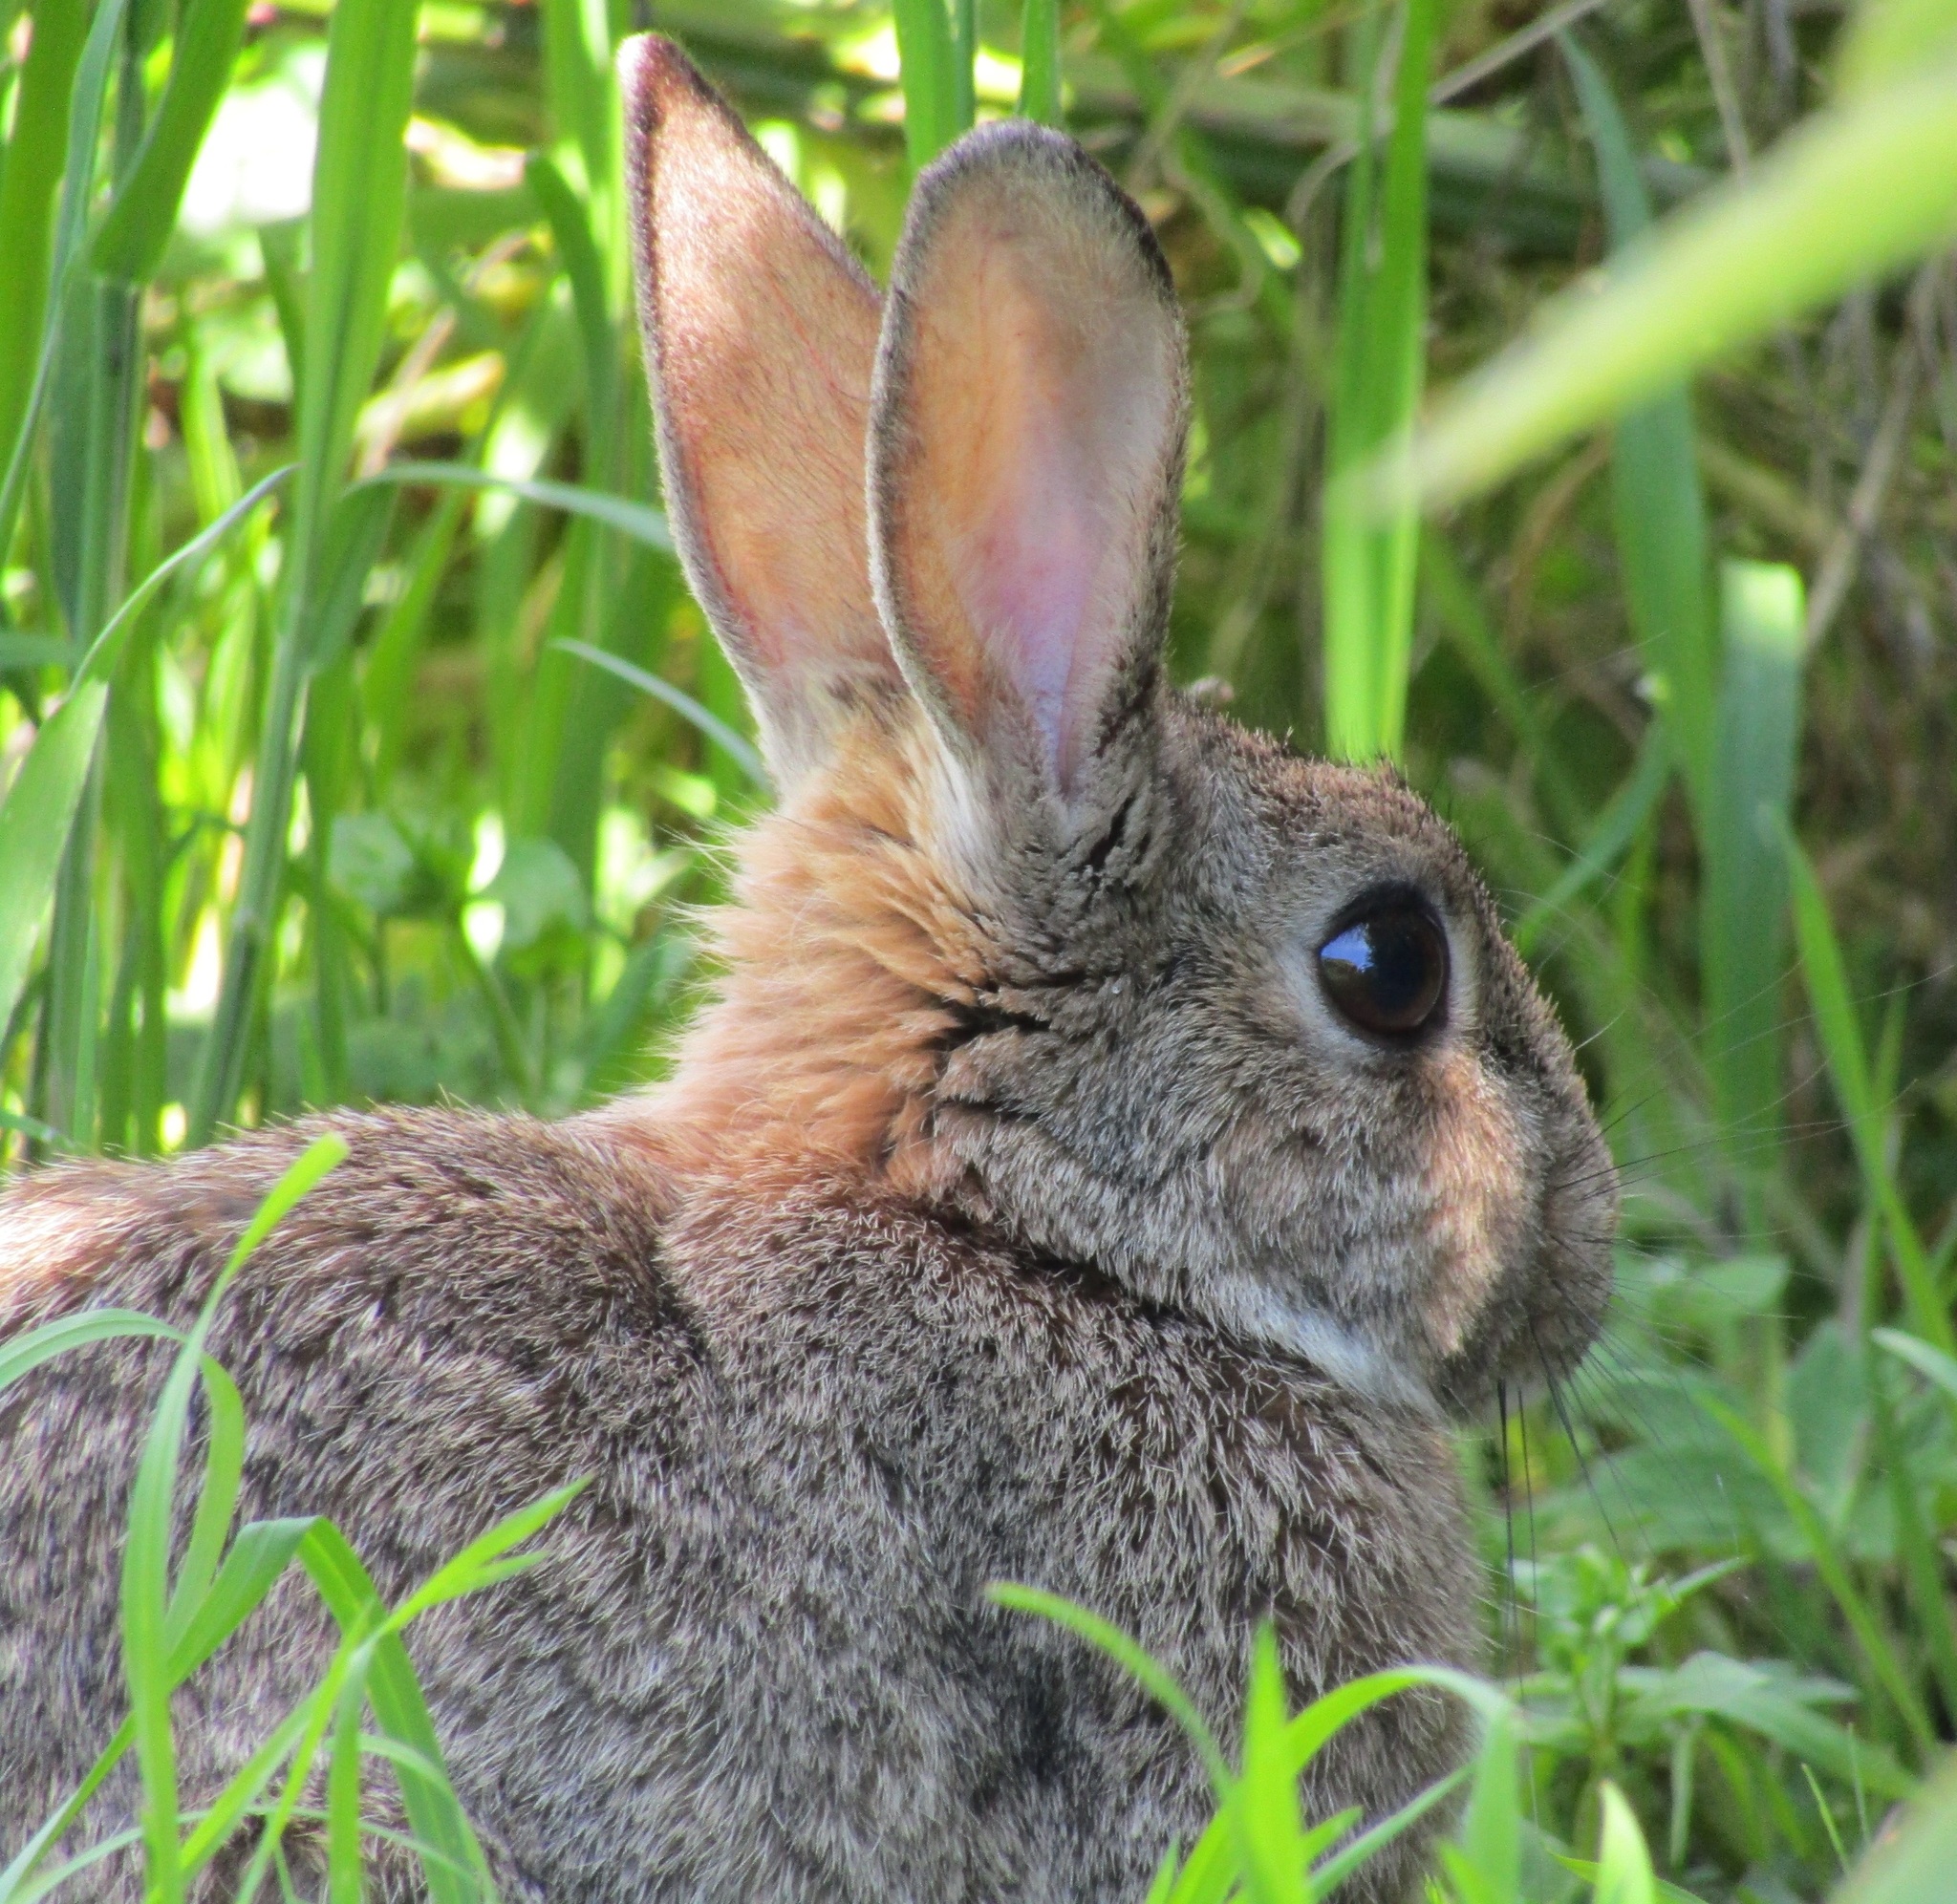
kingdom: Animalia
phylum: Chordata
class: Mammalia
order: Lagomorpha
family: Leporidae
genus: Oryctolagus
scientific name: Oryctolagus cuniculus
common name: European rabbit
